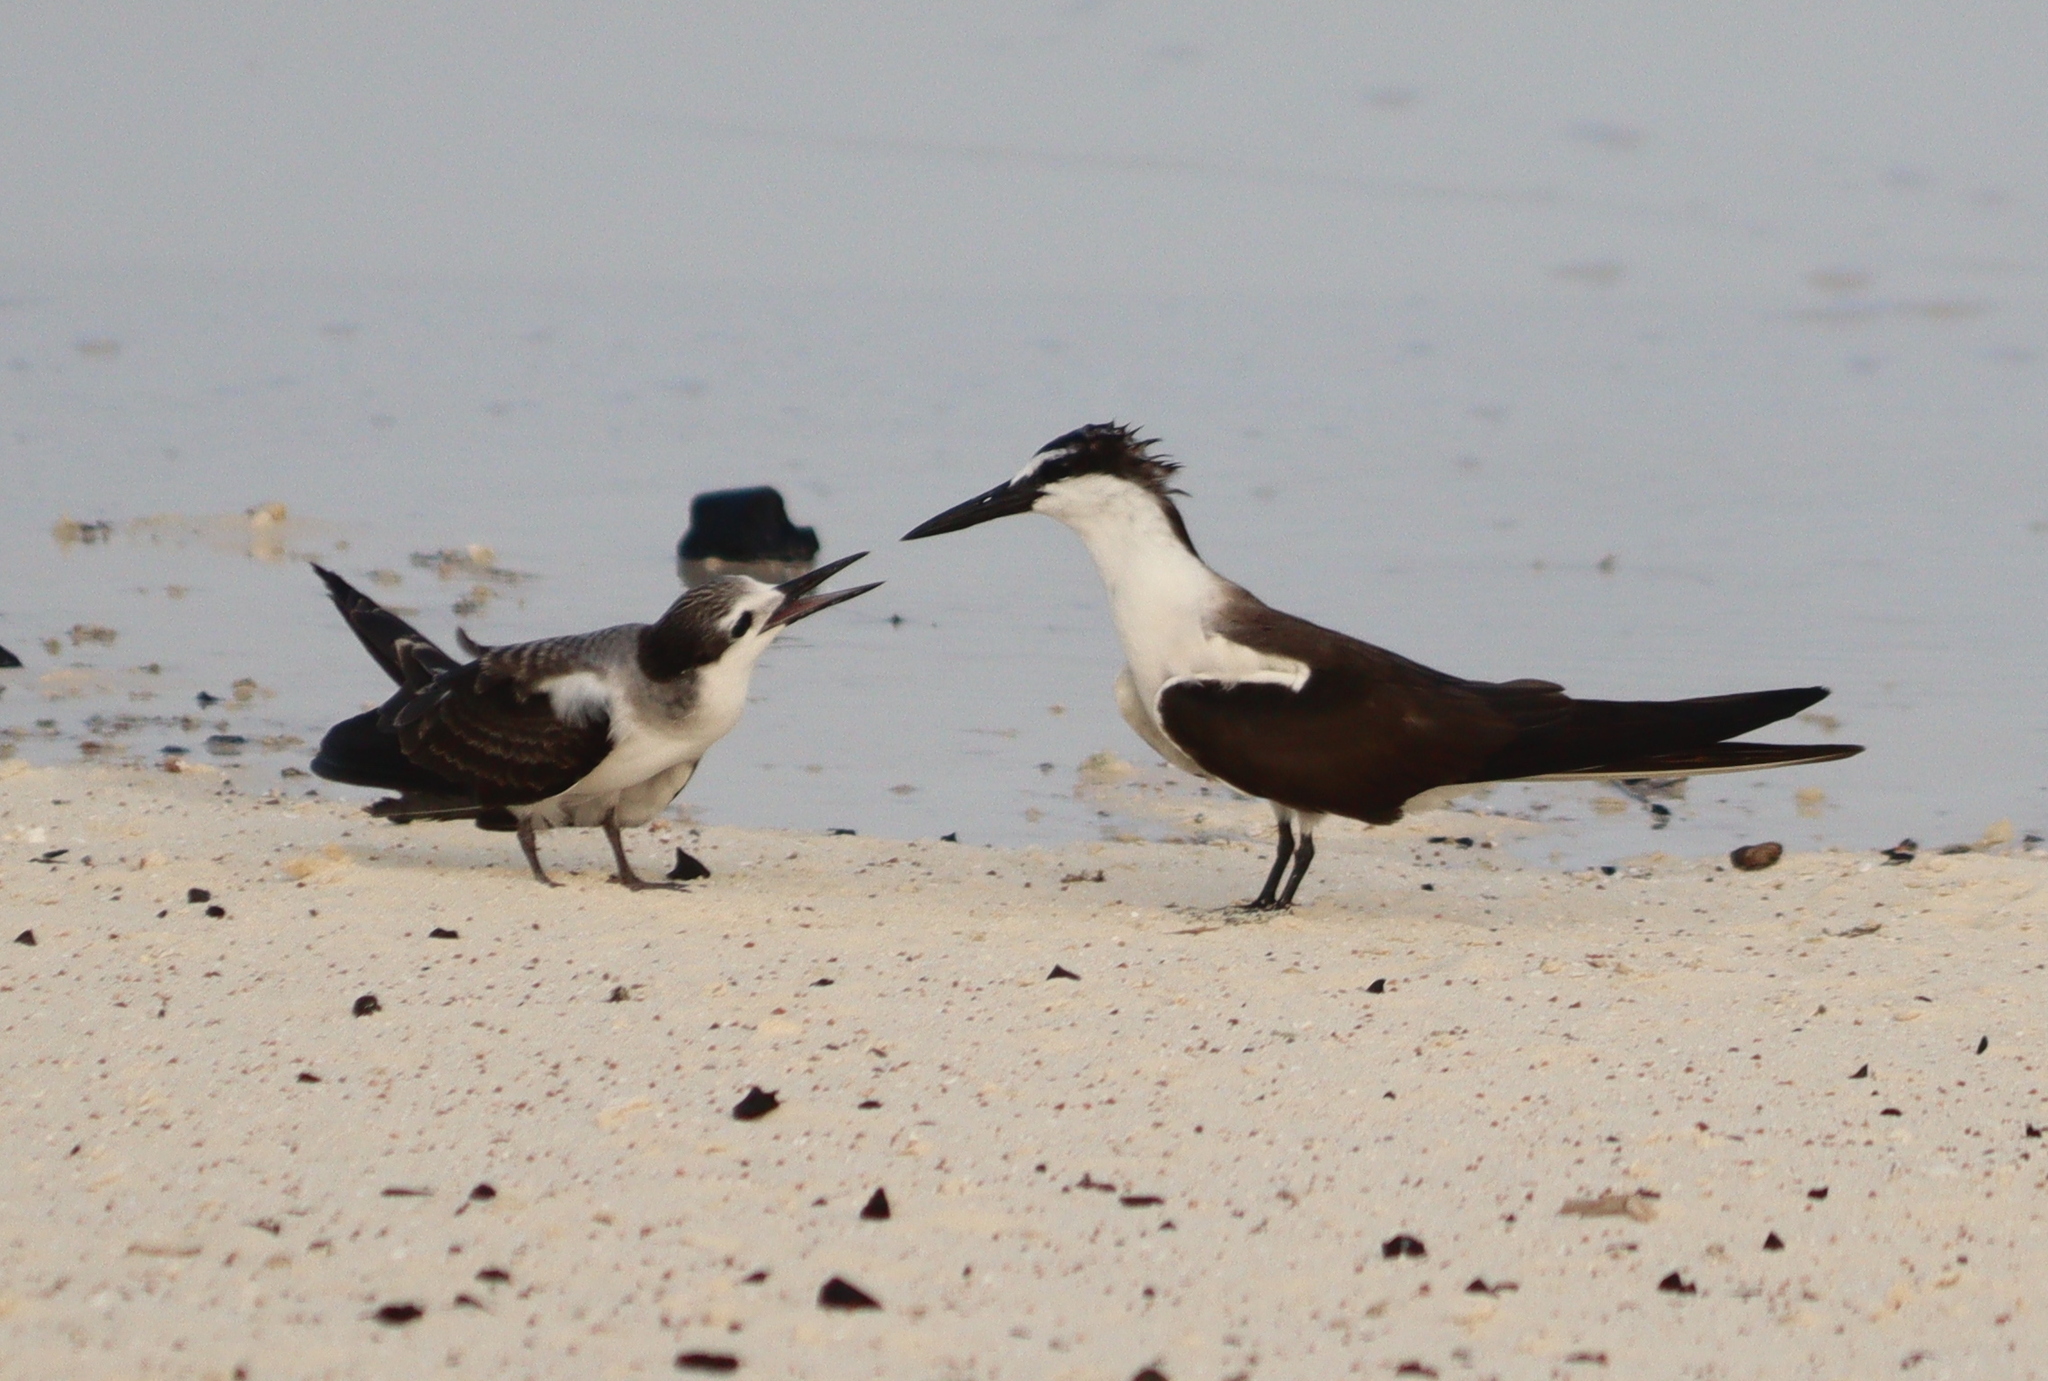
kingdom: Animalia
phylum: Chordata
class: Aves
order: Charadriiformes
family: Laridae
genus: Onychoprion
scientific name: Onychoprion anaethetus
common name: Bridled tern
